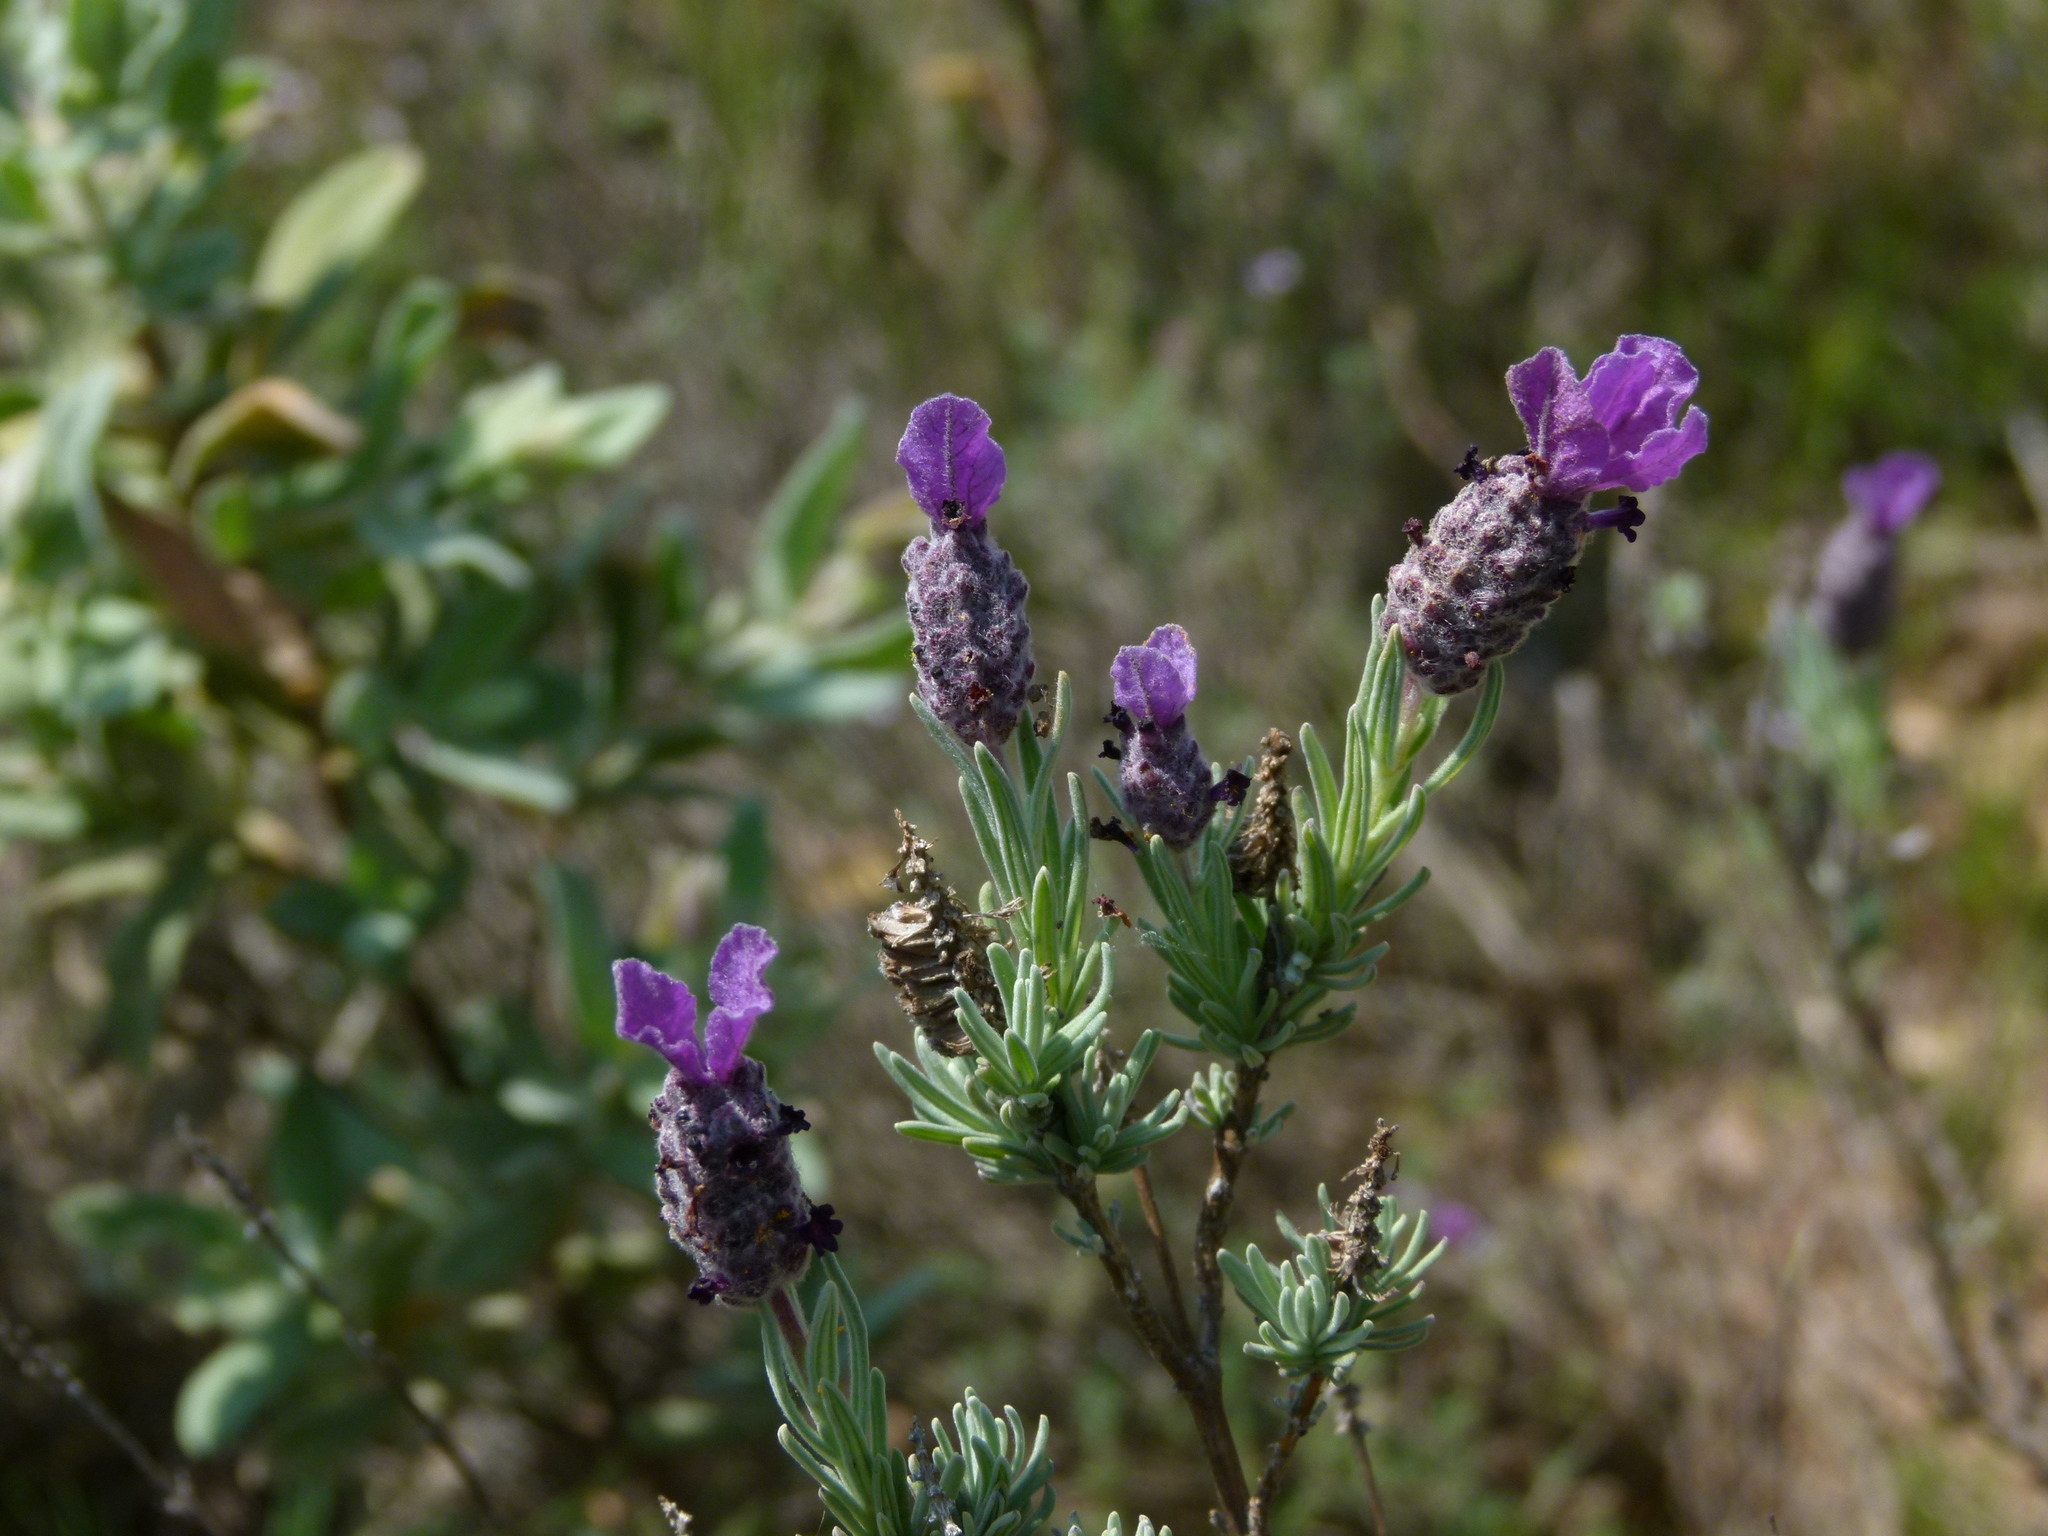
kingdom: Plantae
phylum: Tracheophyta
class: Magnoliopsida
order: Lamiales
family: Lamiaceae
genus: Lavandula
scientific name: Lavandula stoechas
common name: French lavender
